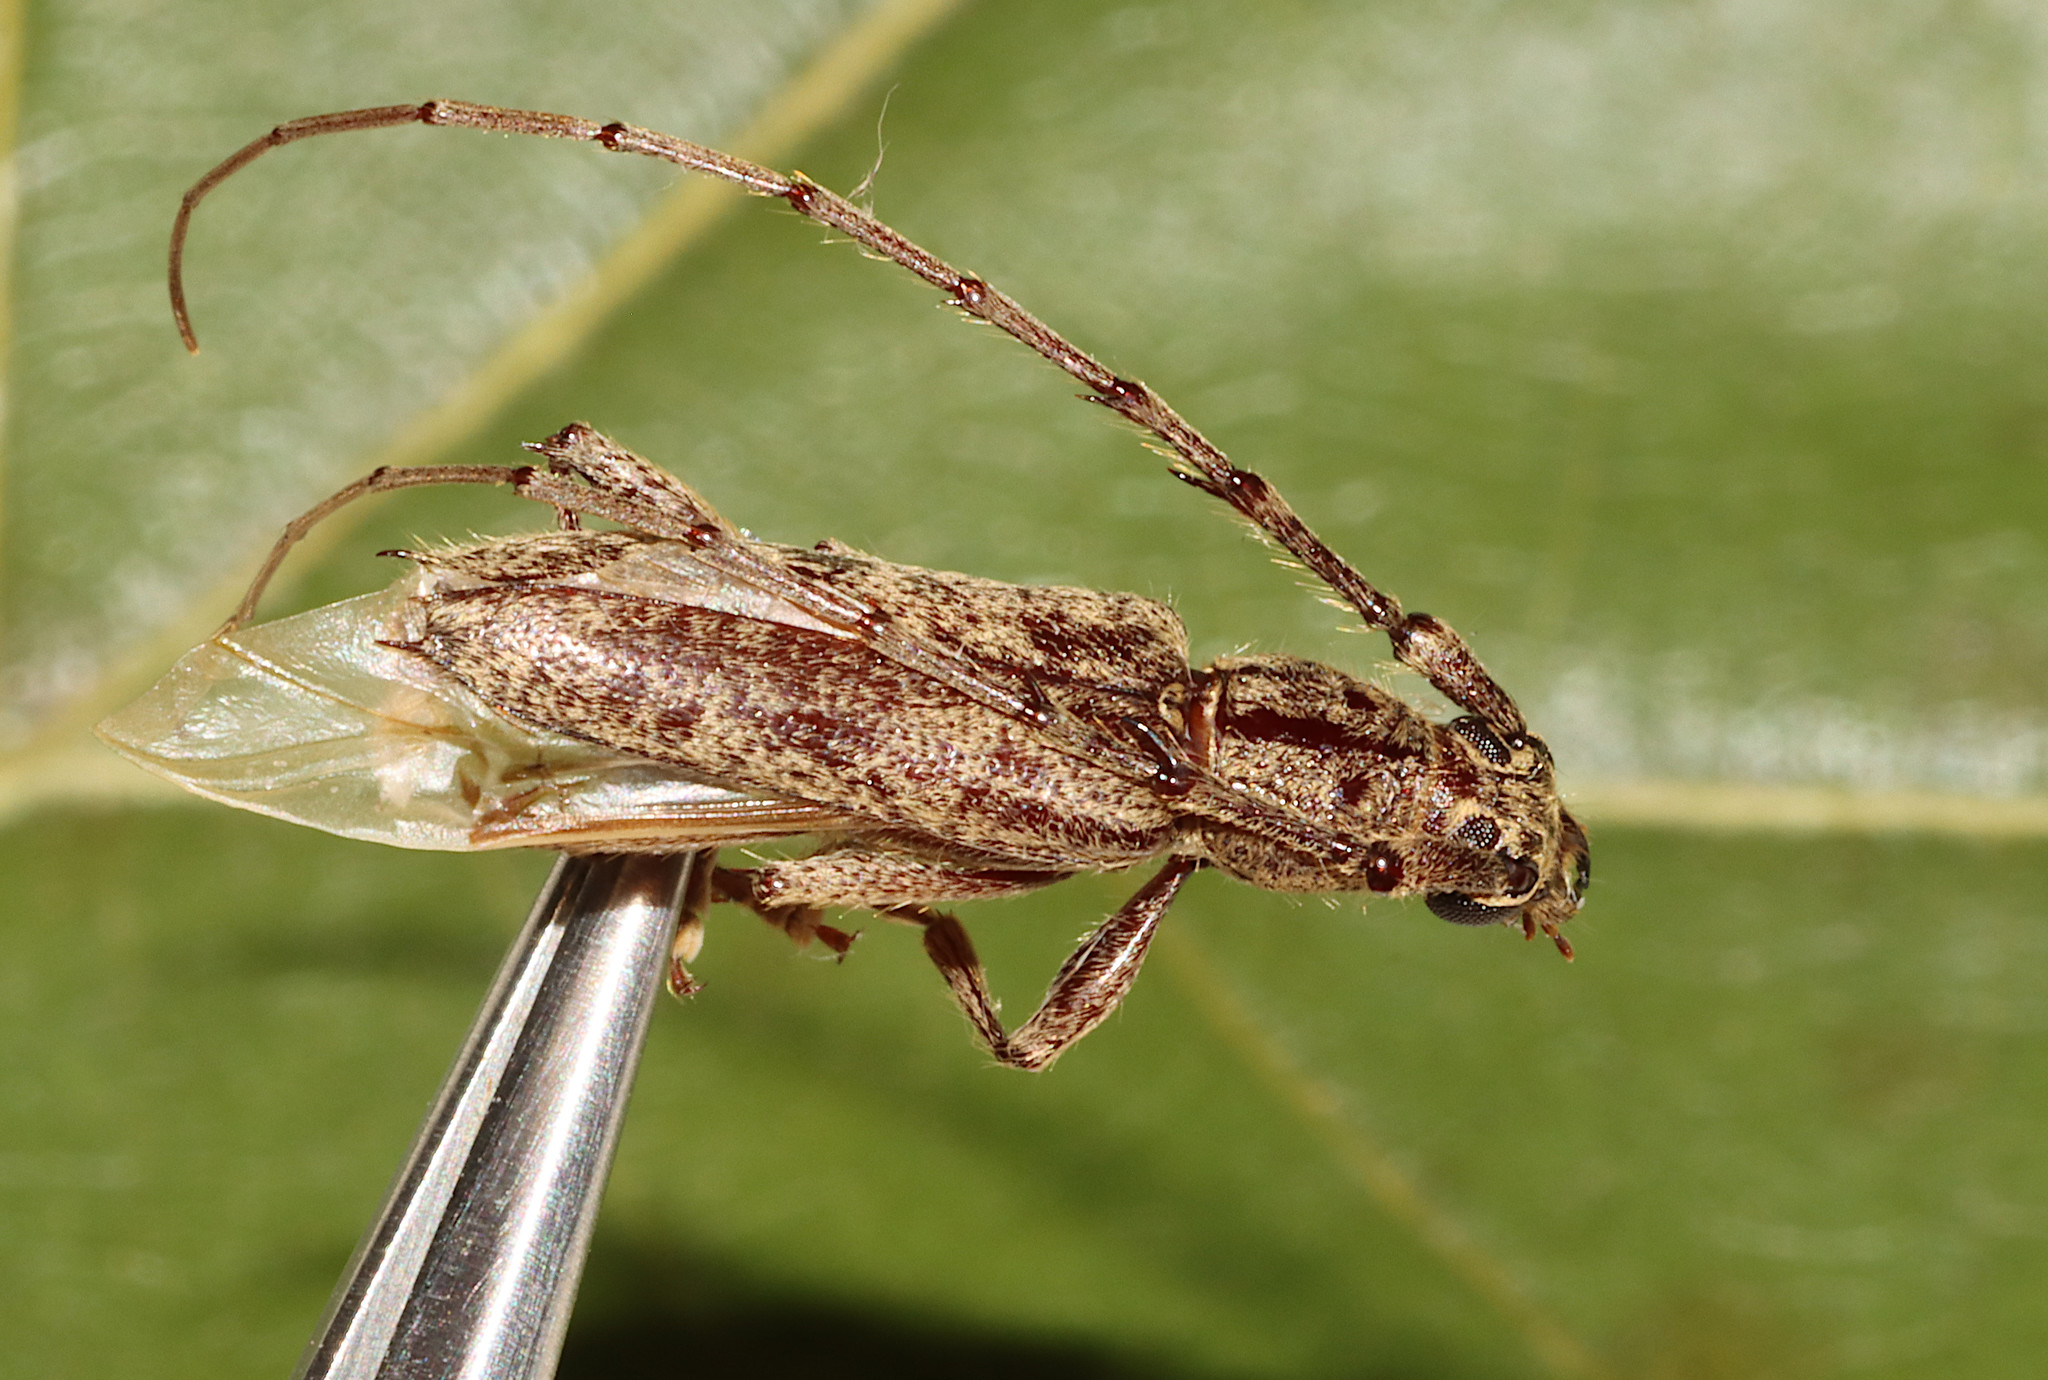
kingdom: Animalia
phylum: Arthropoda
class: Insecta
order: Coleoptera
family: Cerambycidae
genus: Elaphidion
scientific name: Elaphidion mucronatum
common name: Spined oak borer
